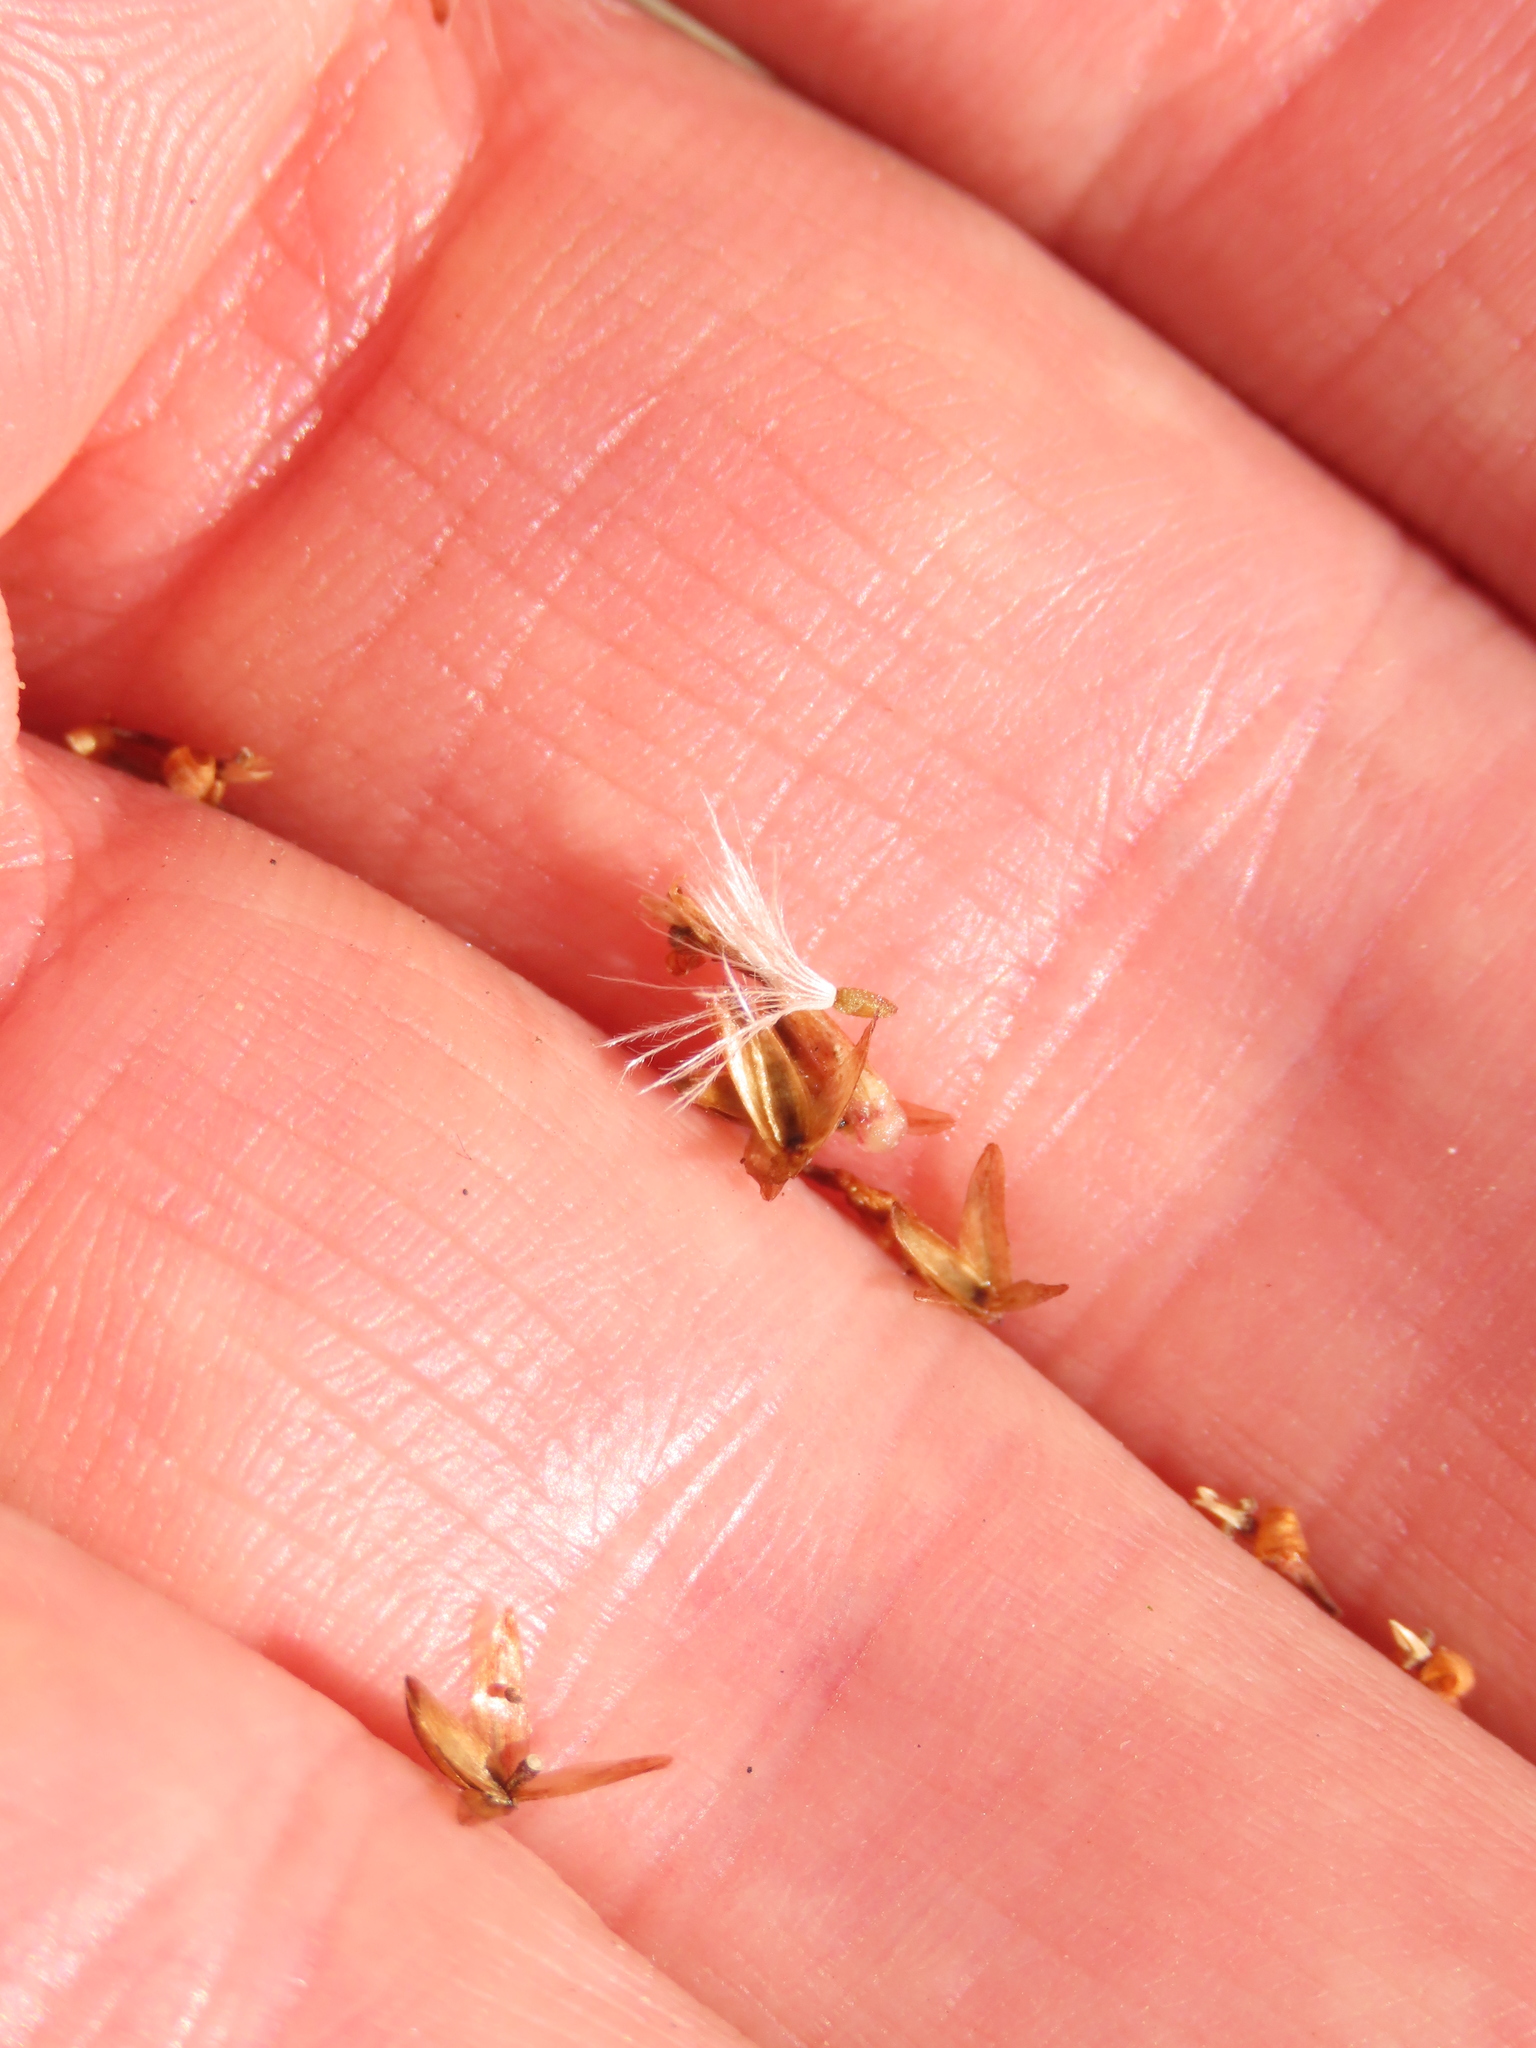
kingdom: Plantae
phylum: Tracheophyta
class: Magnoliopsida
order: Asterales
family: Asteraceae
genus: Polyachyrus
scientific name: Polyachyrus fuscus
